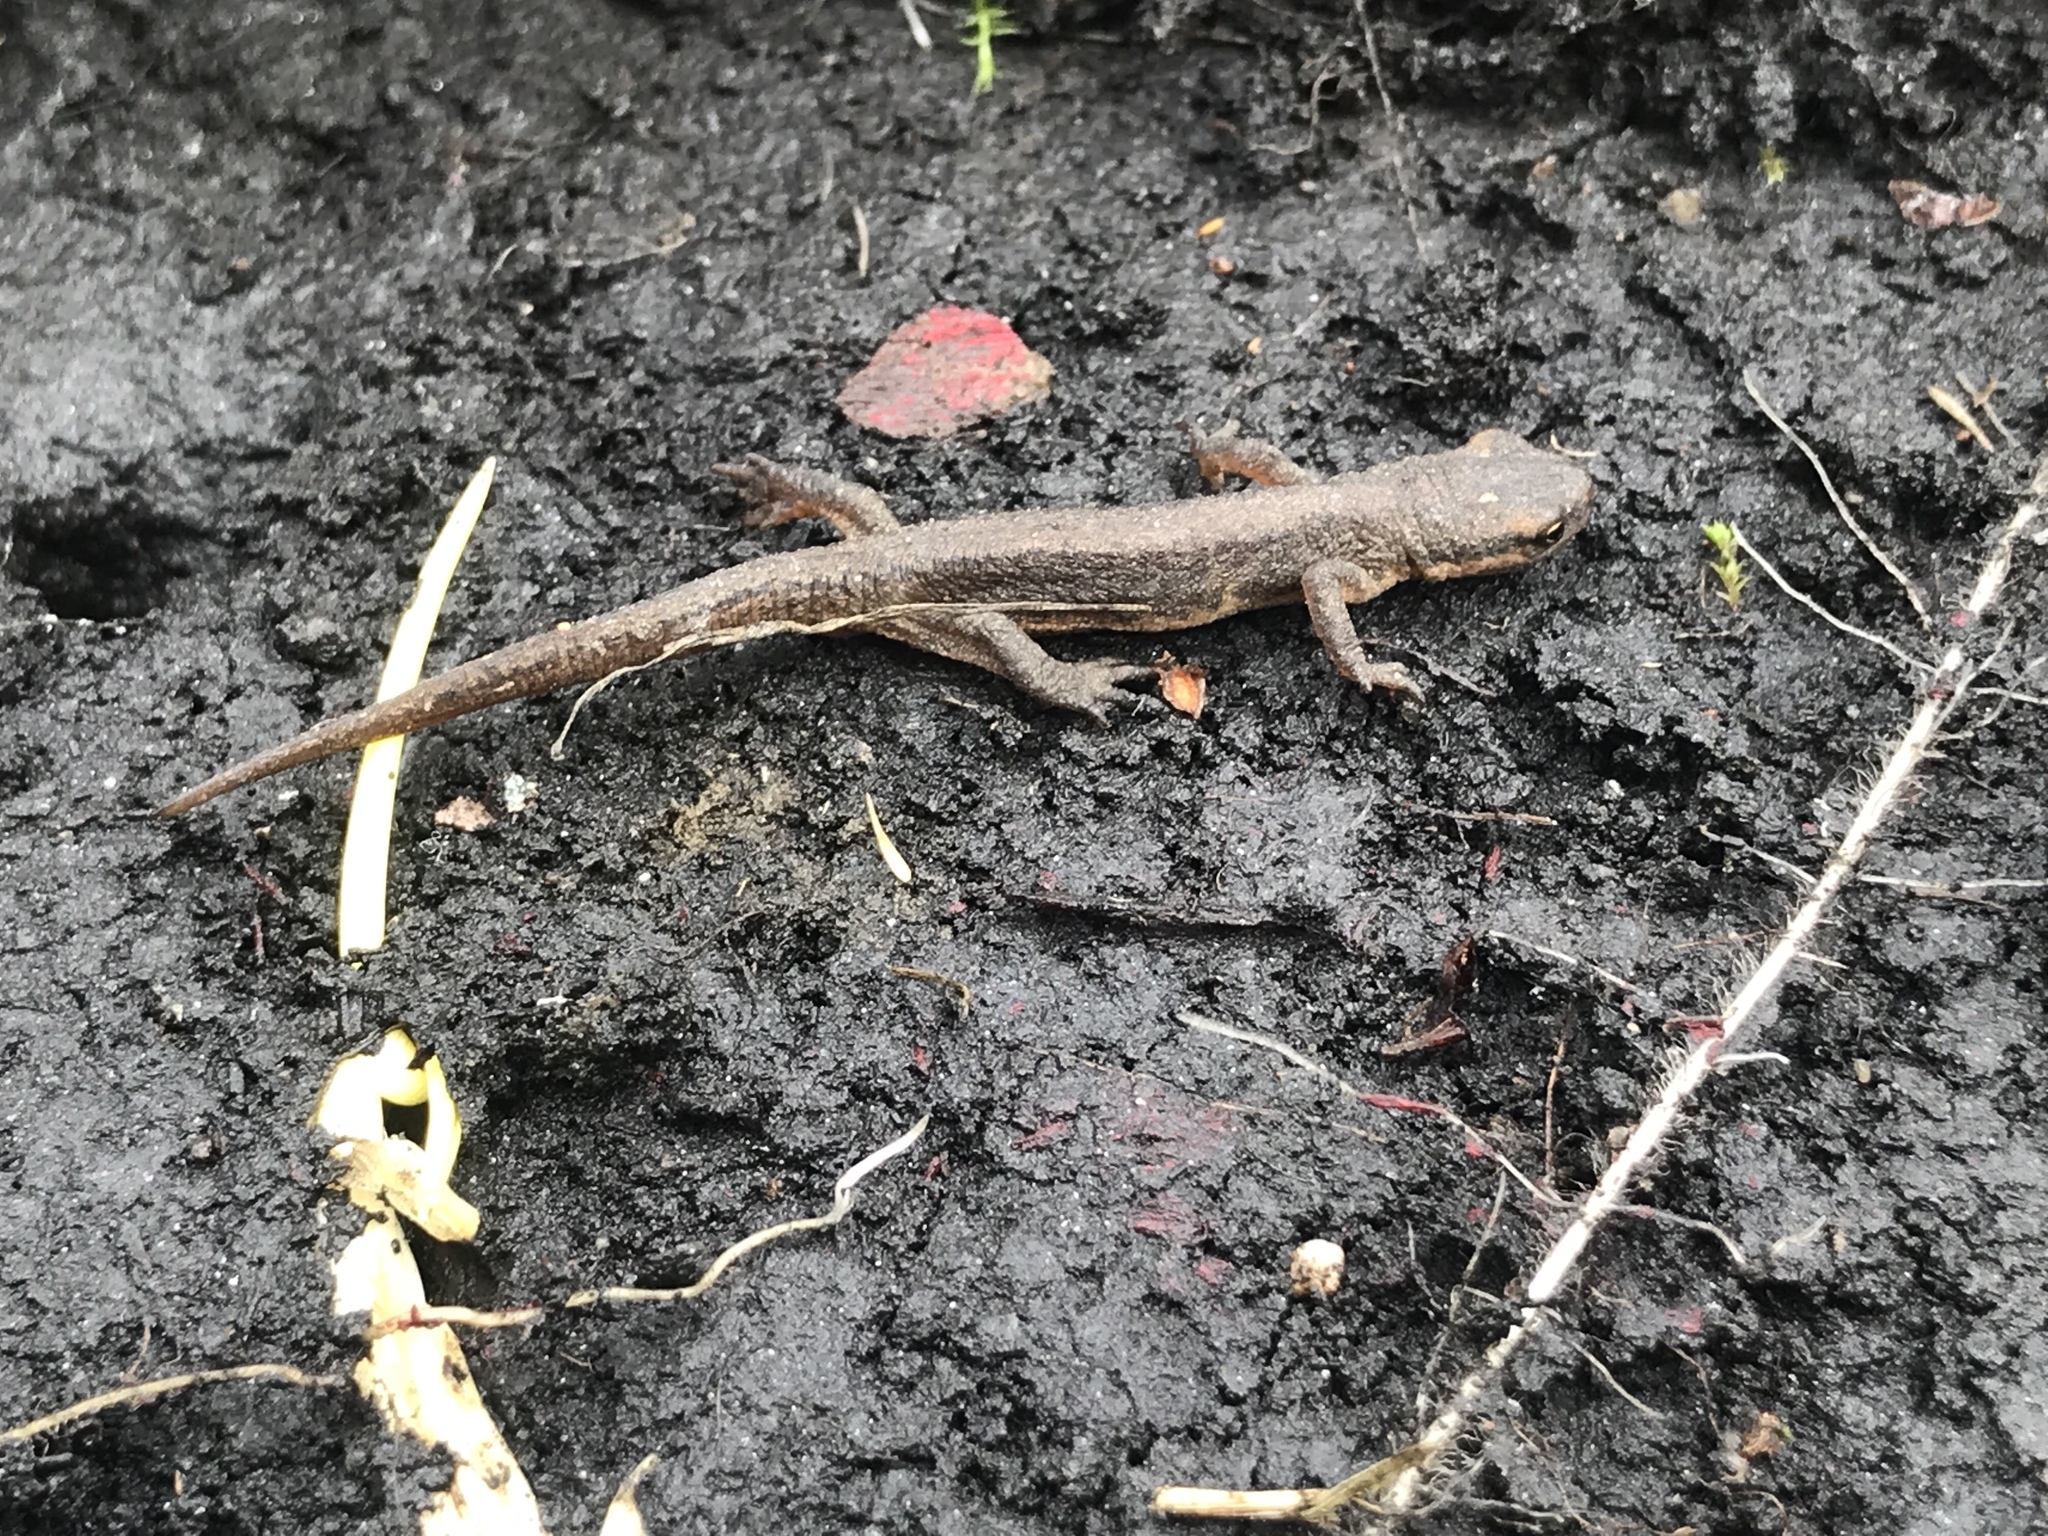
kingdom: Animalia
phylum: Chordata
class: Amphibia
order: Caudata
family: Salamandridae
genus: Lissotriton
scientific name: Lissotriton vulgaris
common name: Smooth newt
